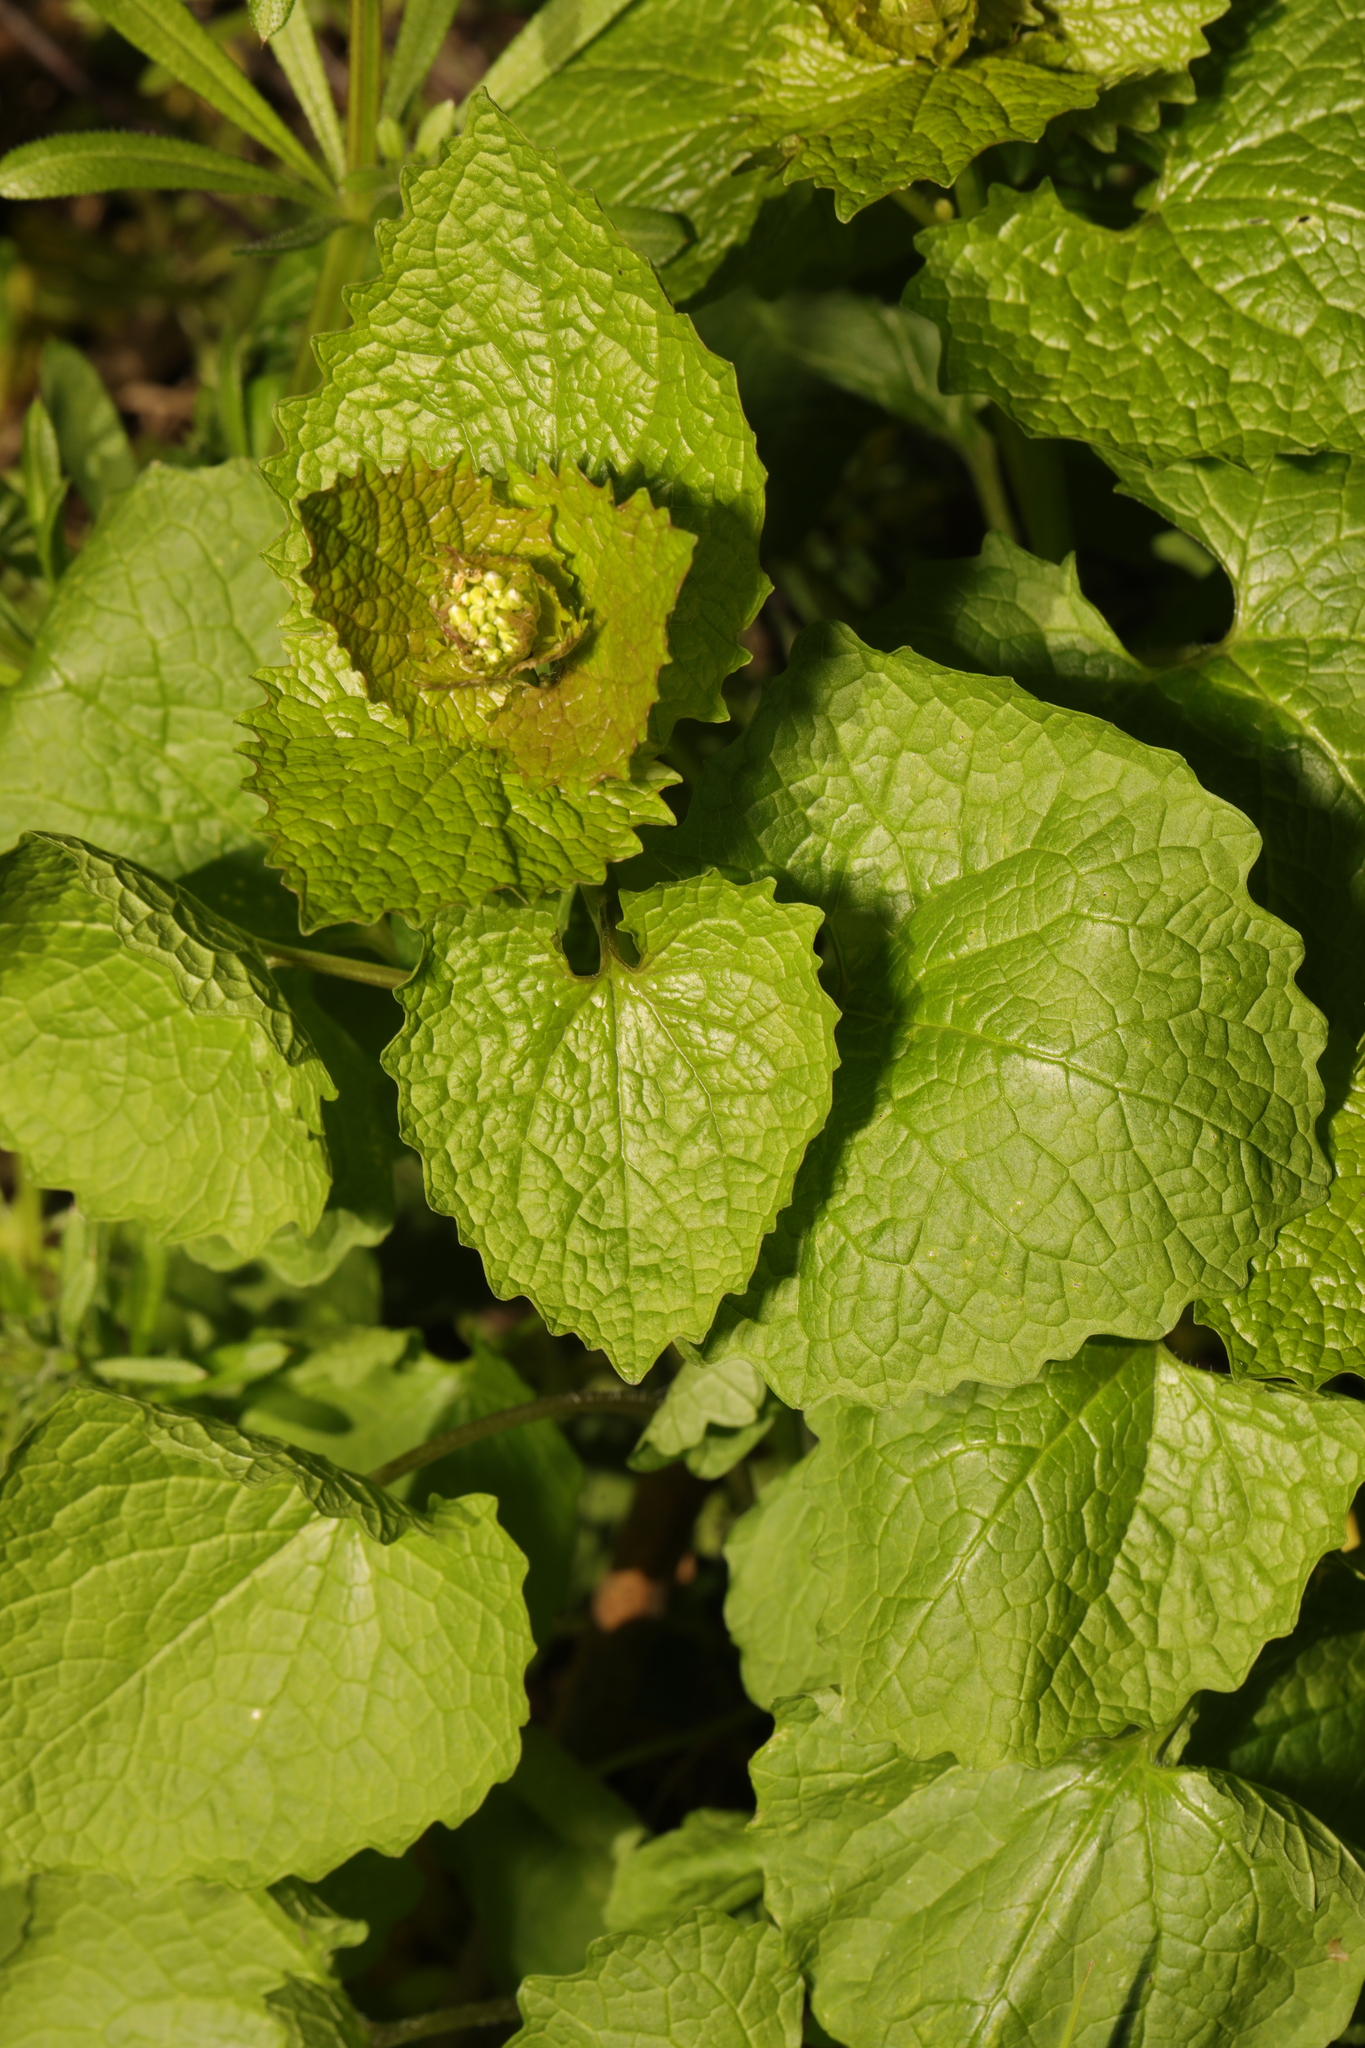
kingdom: Plantae
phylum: Tracheophyta
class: Magnoliopsida
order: Brassicales
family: Brassicaceae
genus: Alliaria
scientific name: Alliaria petiolata
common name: Garlic mustard
